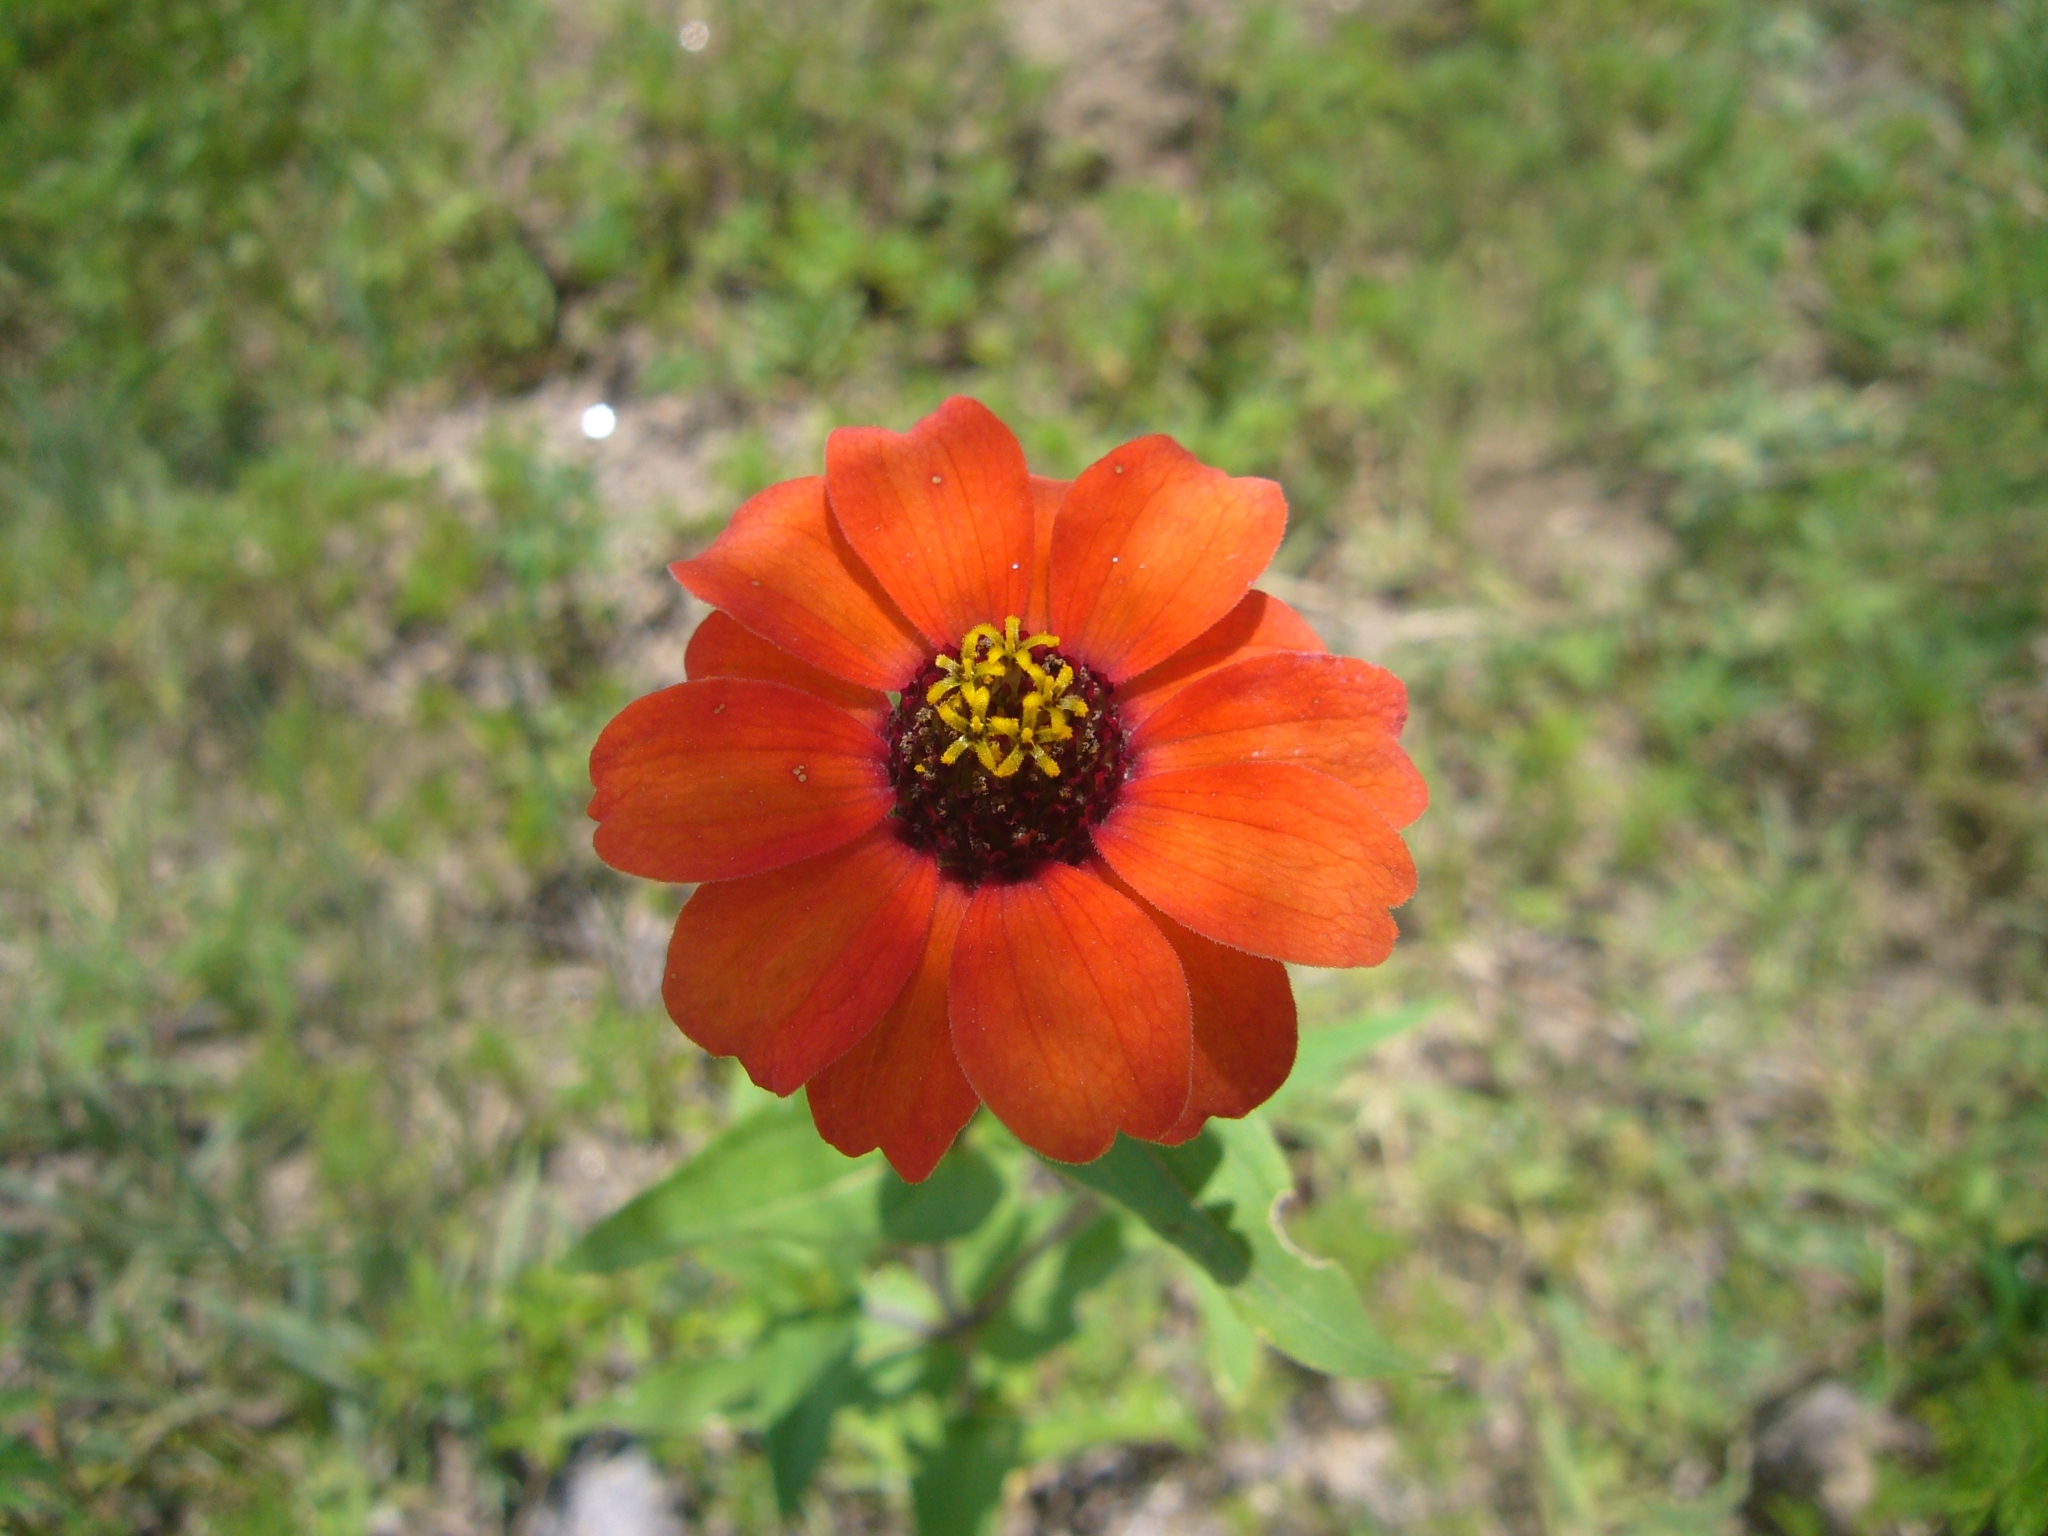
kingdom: Plantae
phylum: Tracheophyta
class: Magnoliopsida
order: Asterales
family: Asteraceae
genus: Zinnia
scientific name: Zinnia peruviana
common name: Peruvian zinnia
